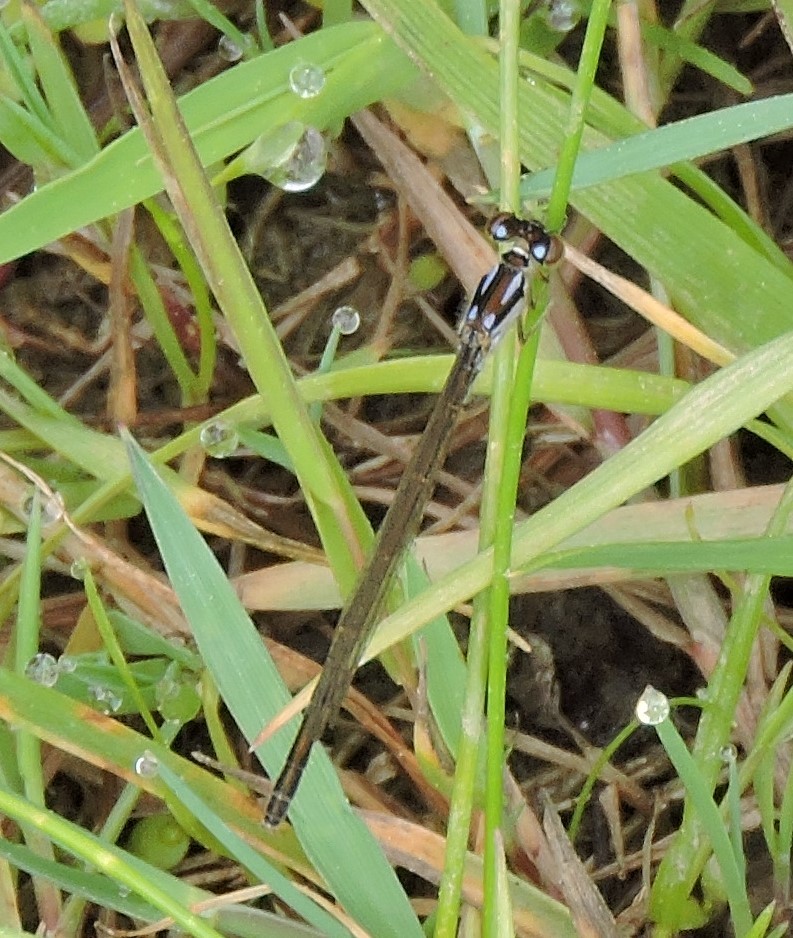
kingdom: Animalia
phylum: Arthropoda
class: Insecta
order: Odonata
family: Coenagrionidae
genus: Ischnura
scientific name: Ischnura posita
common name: Fragile forktail
